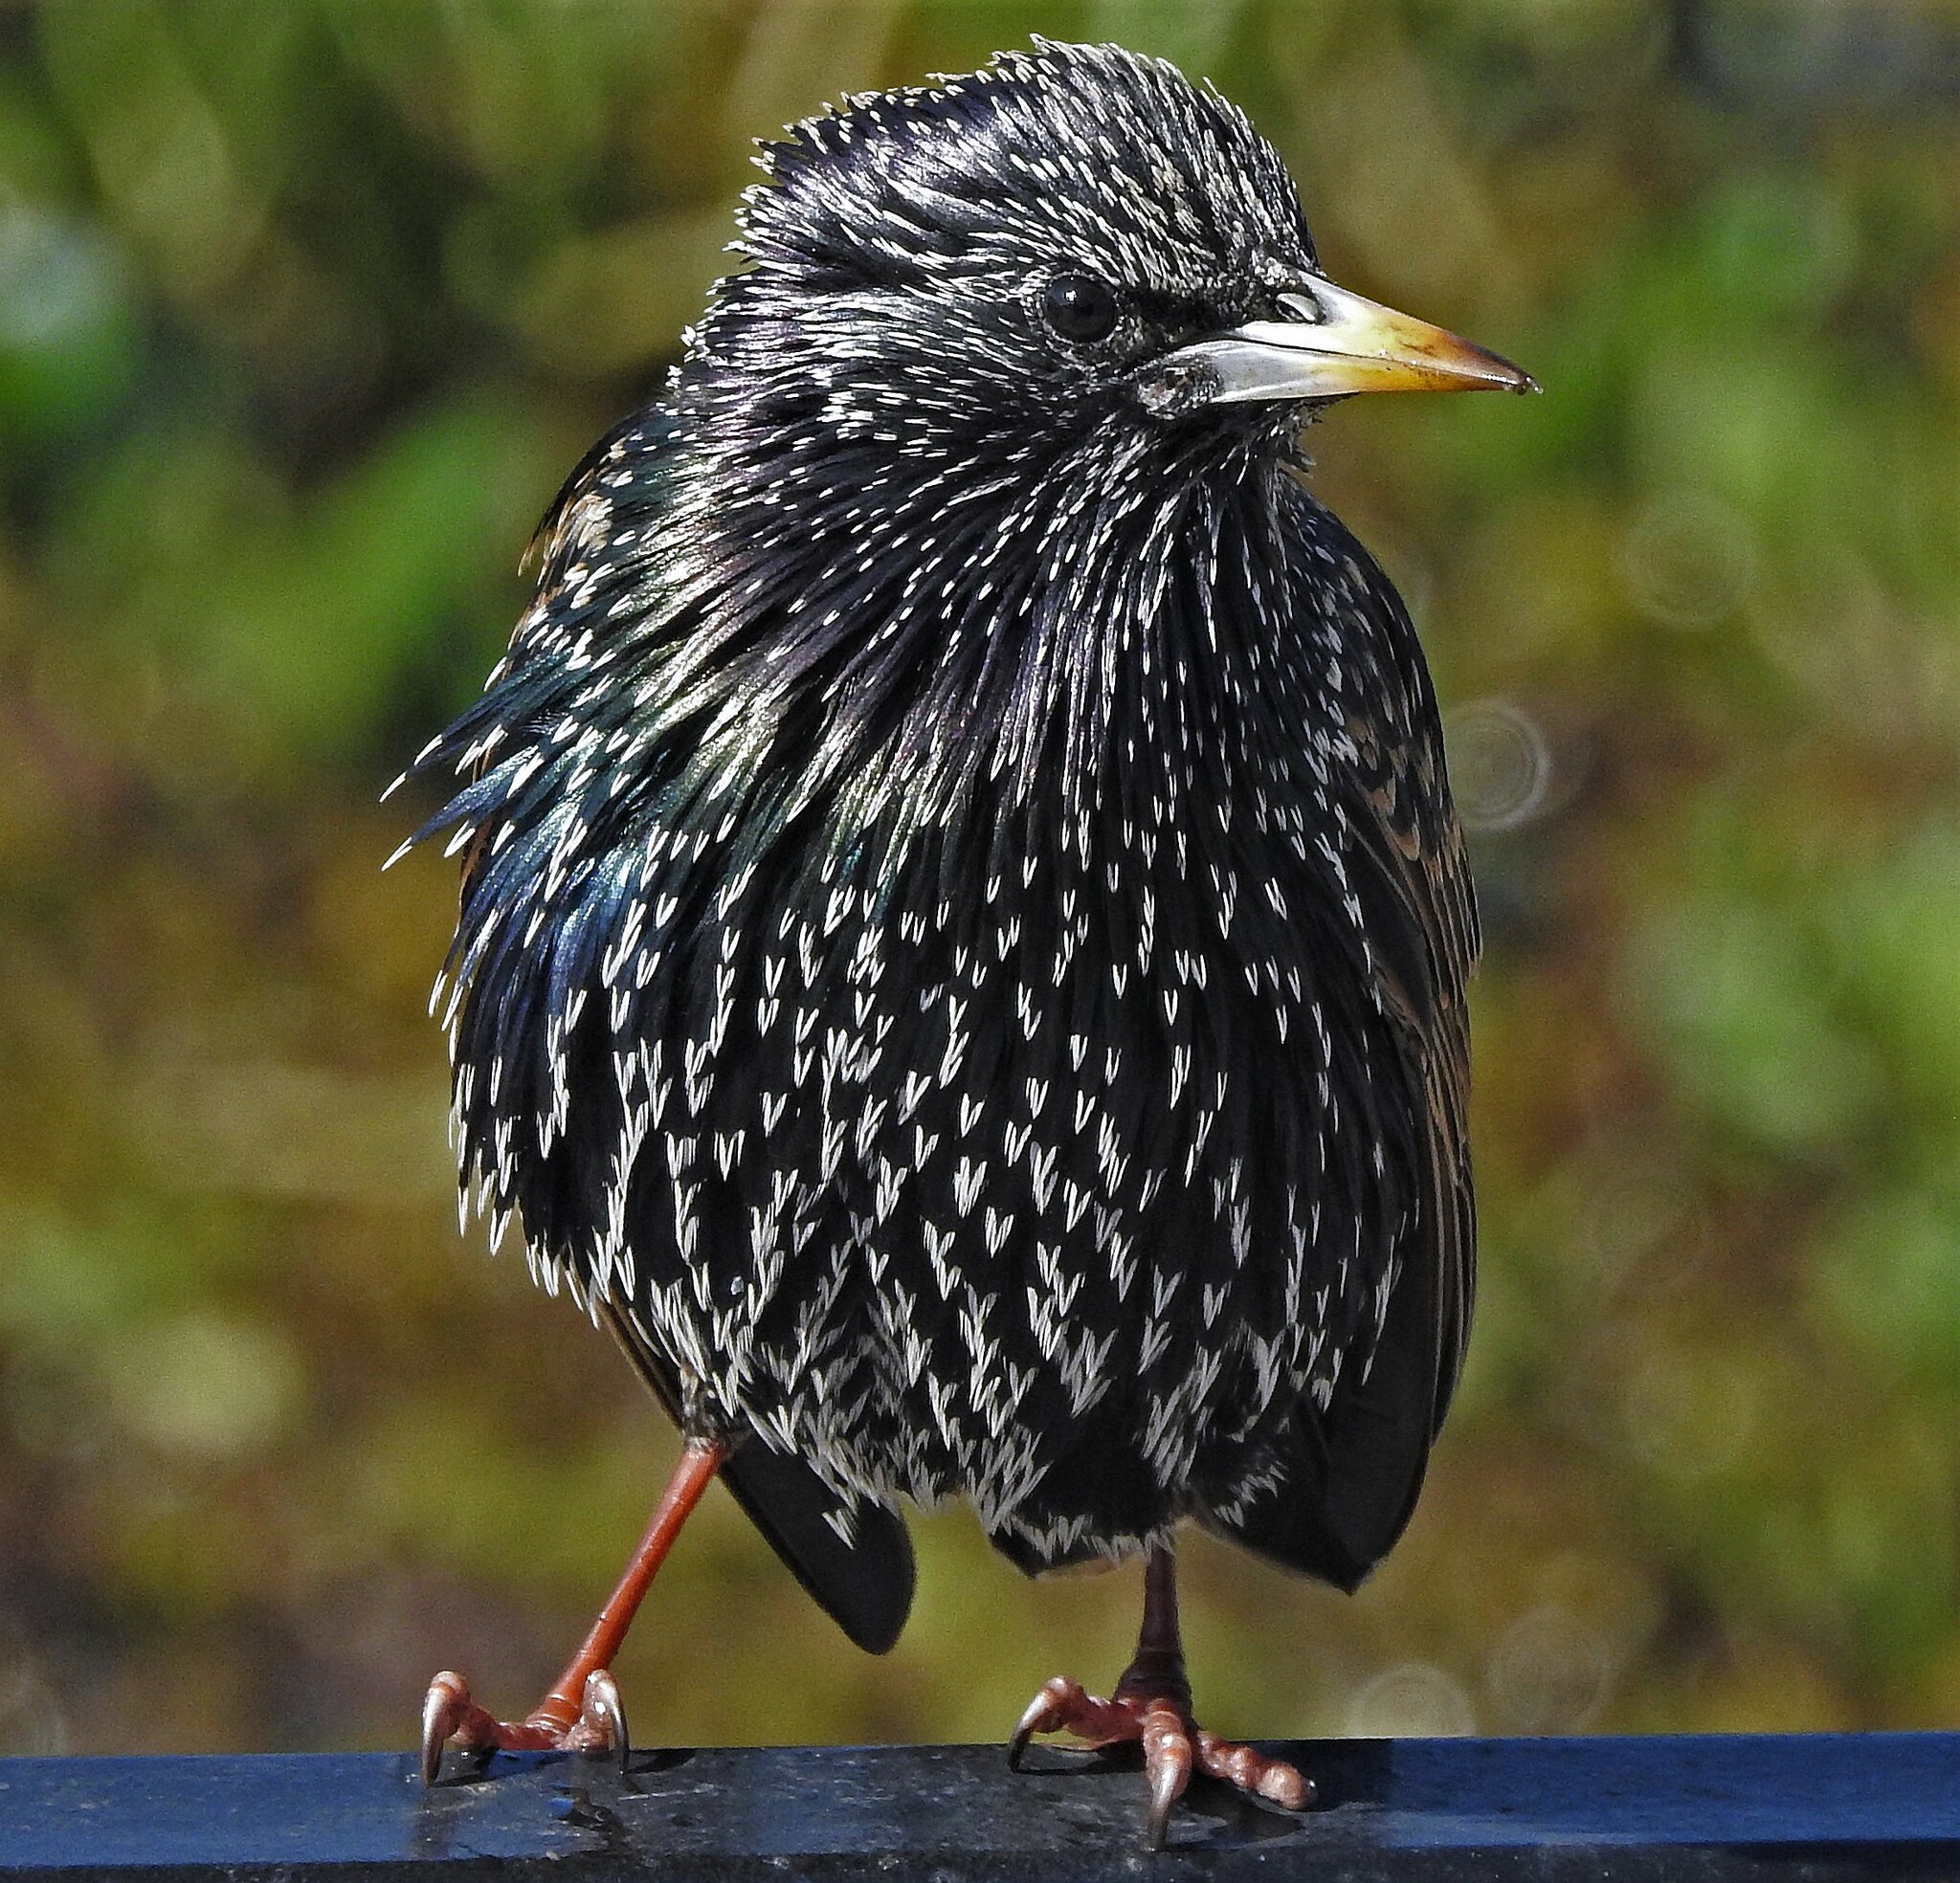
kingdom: Animalia
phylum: Chordata
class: Aves
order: Passeriformes
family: Sturnidae
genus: Sturnus
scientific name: Sturnus vulgaris
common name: Common starling
